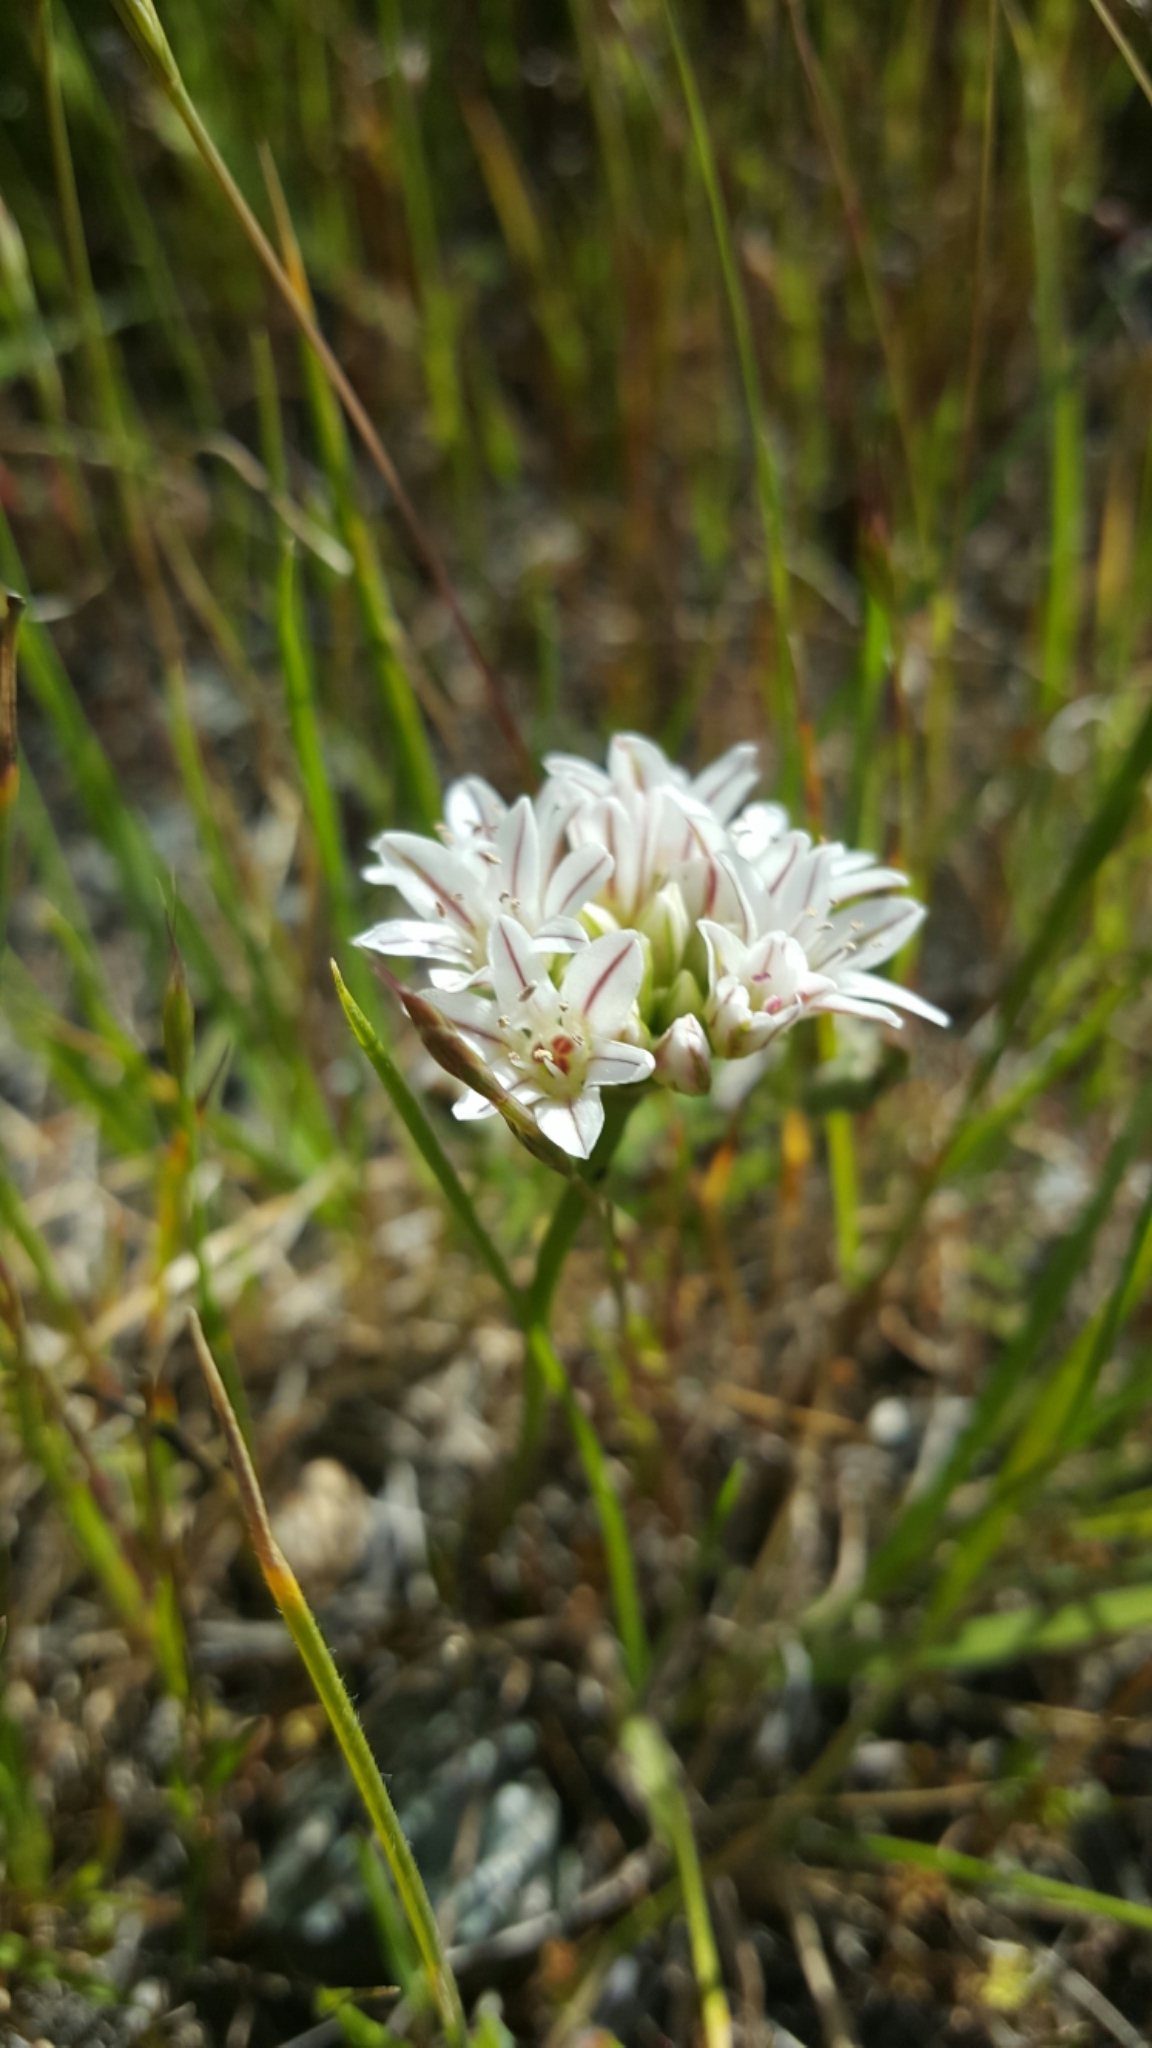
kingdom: Plantae
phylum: Tracheophyta
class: Liliopsida
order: Asparagales
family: Amaryllidaceae
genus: Allium
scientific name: Allium lacunosum
